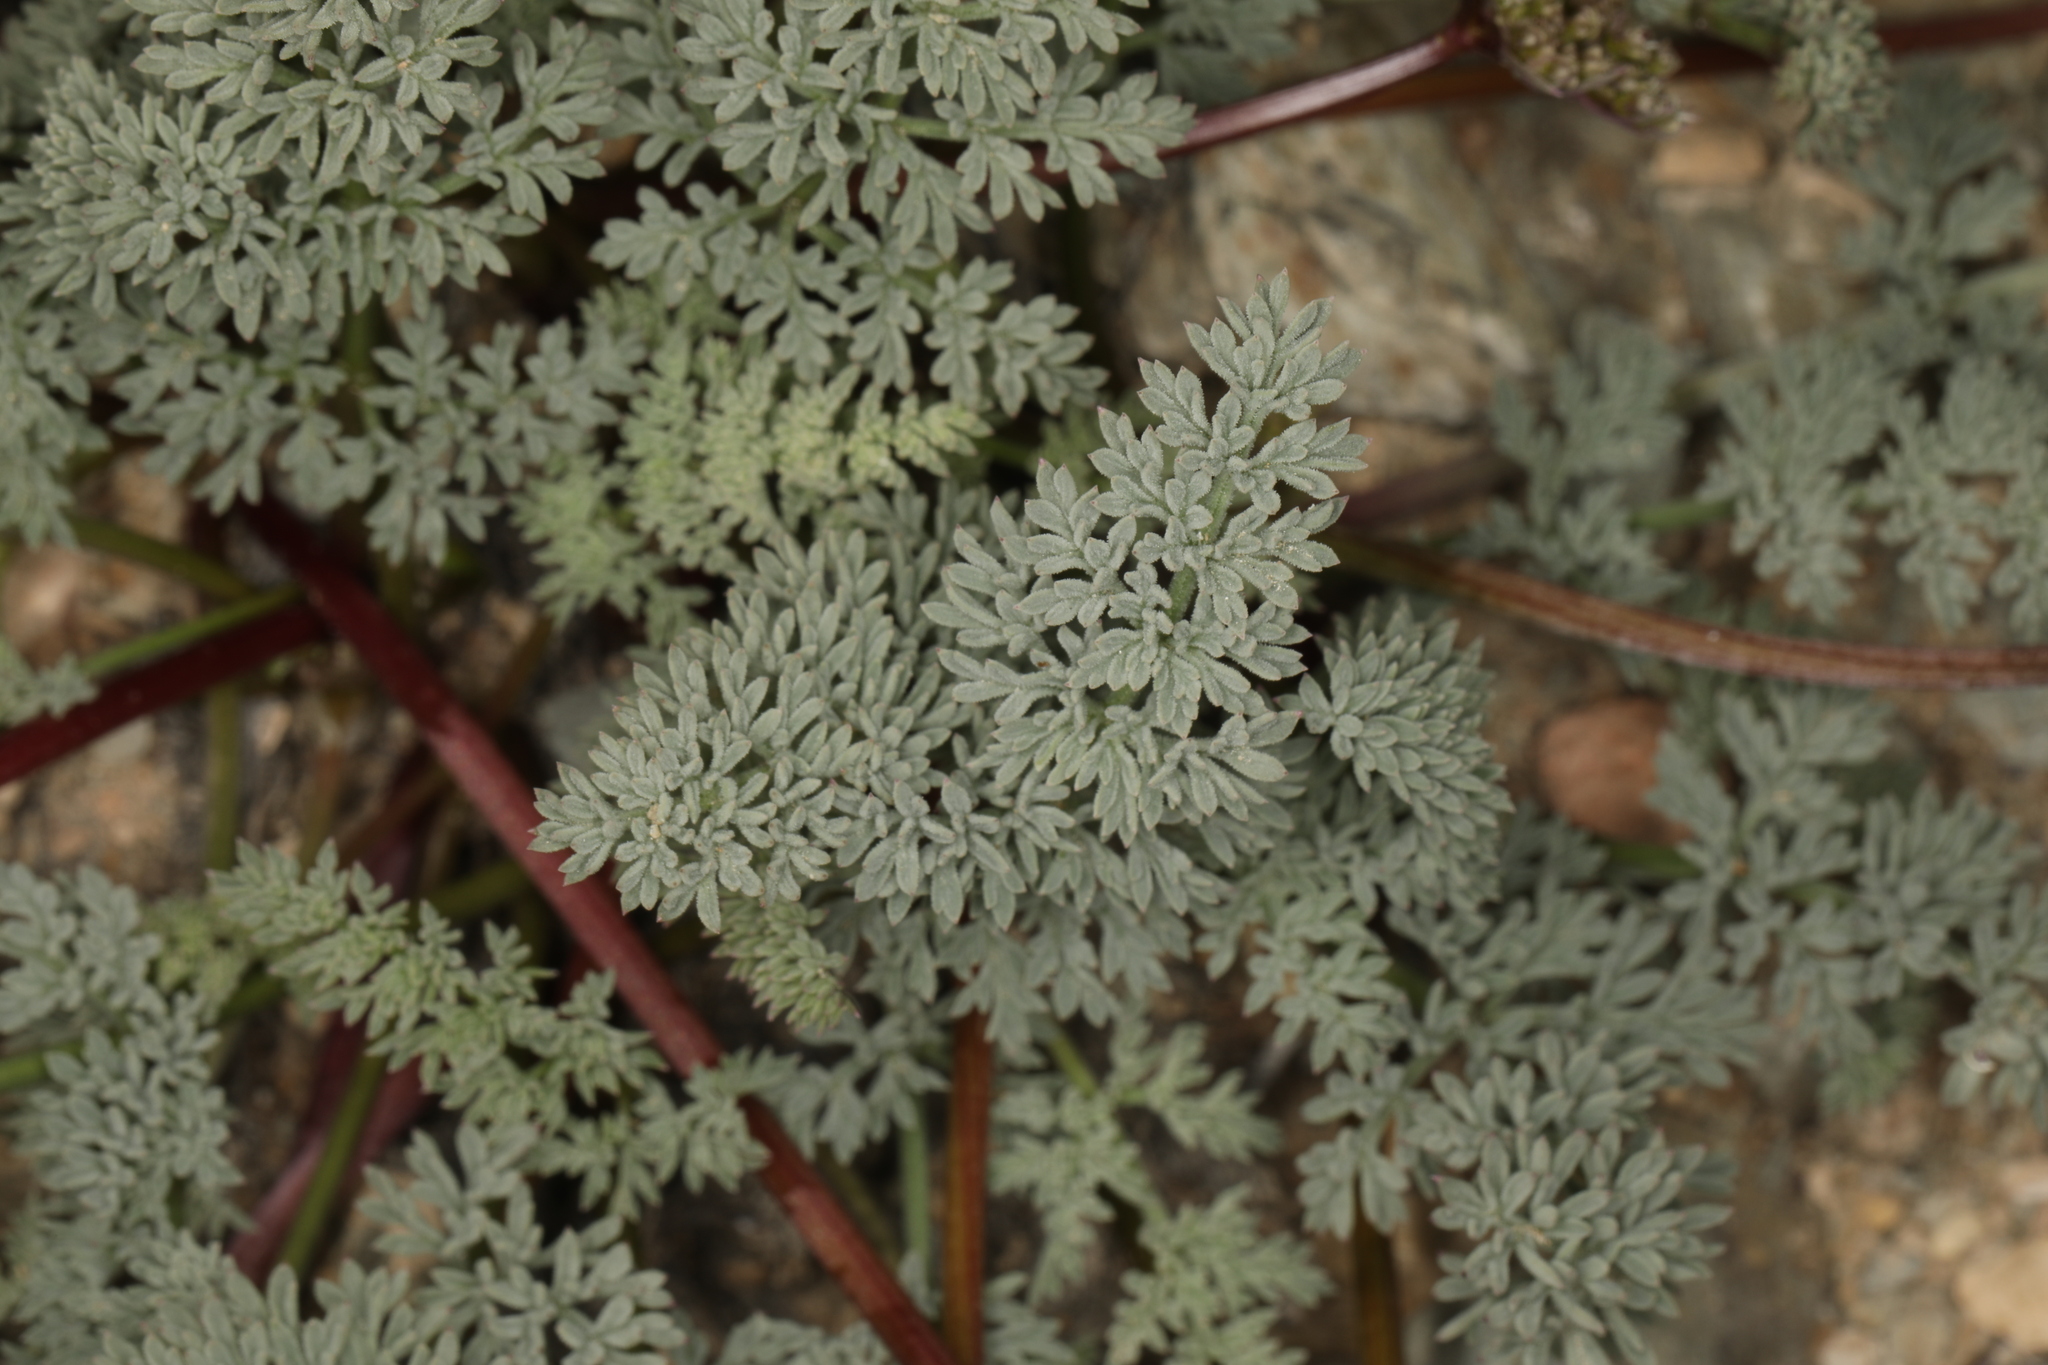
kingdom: Plantae
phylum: Tracheophyta
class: Magnoliopsida
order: Apiales
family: Apiaceae
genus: Aulospermum
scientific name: Aulospermum aboriginum
